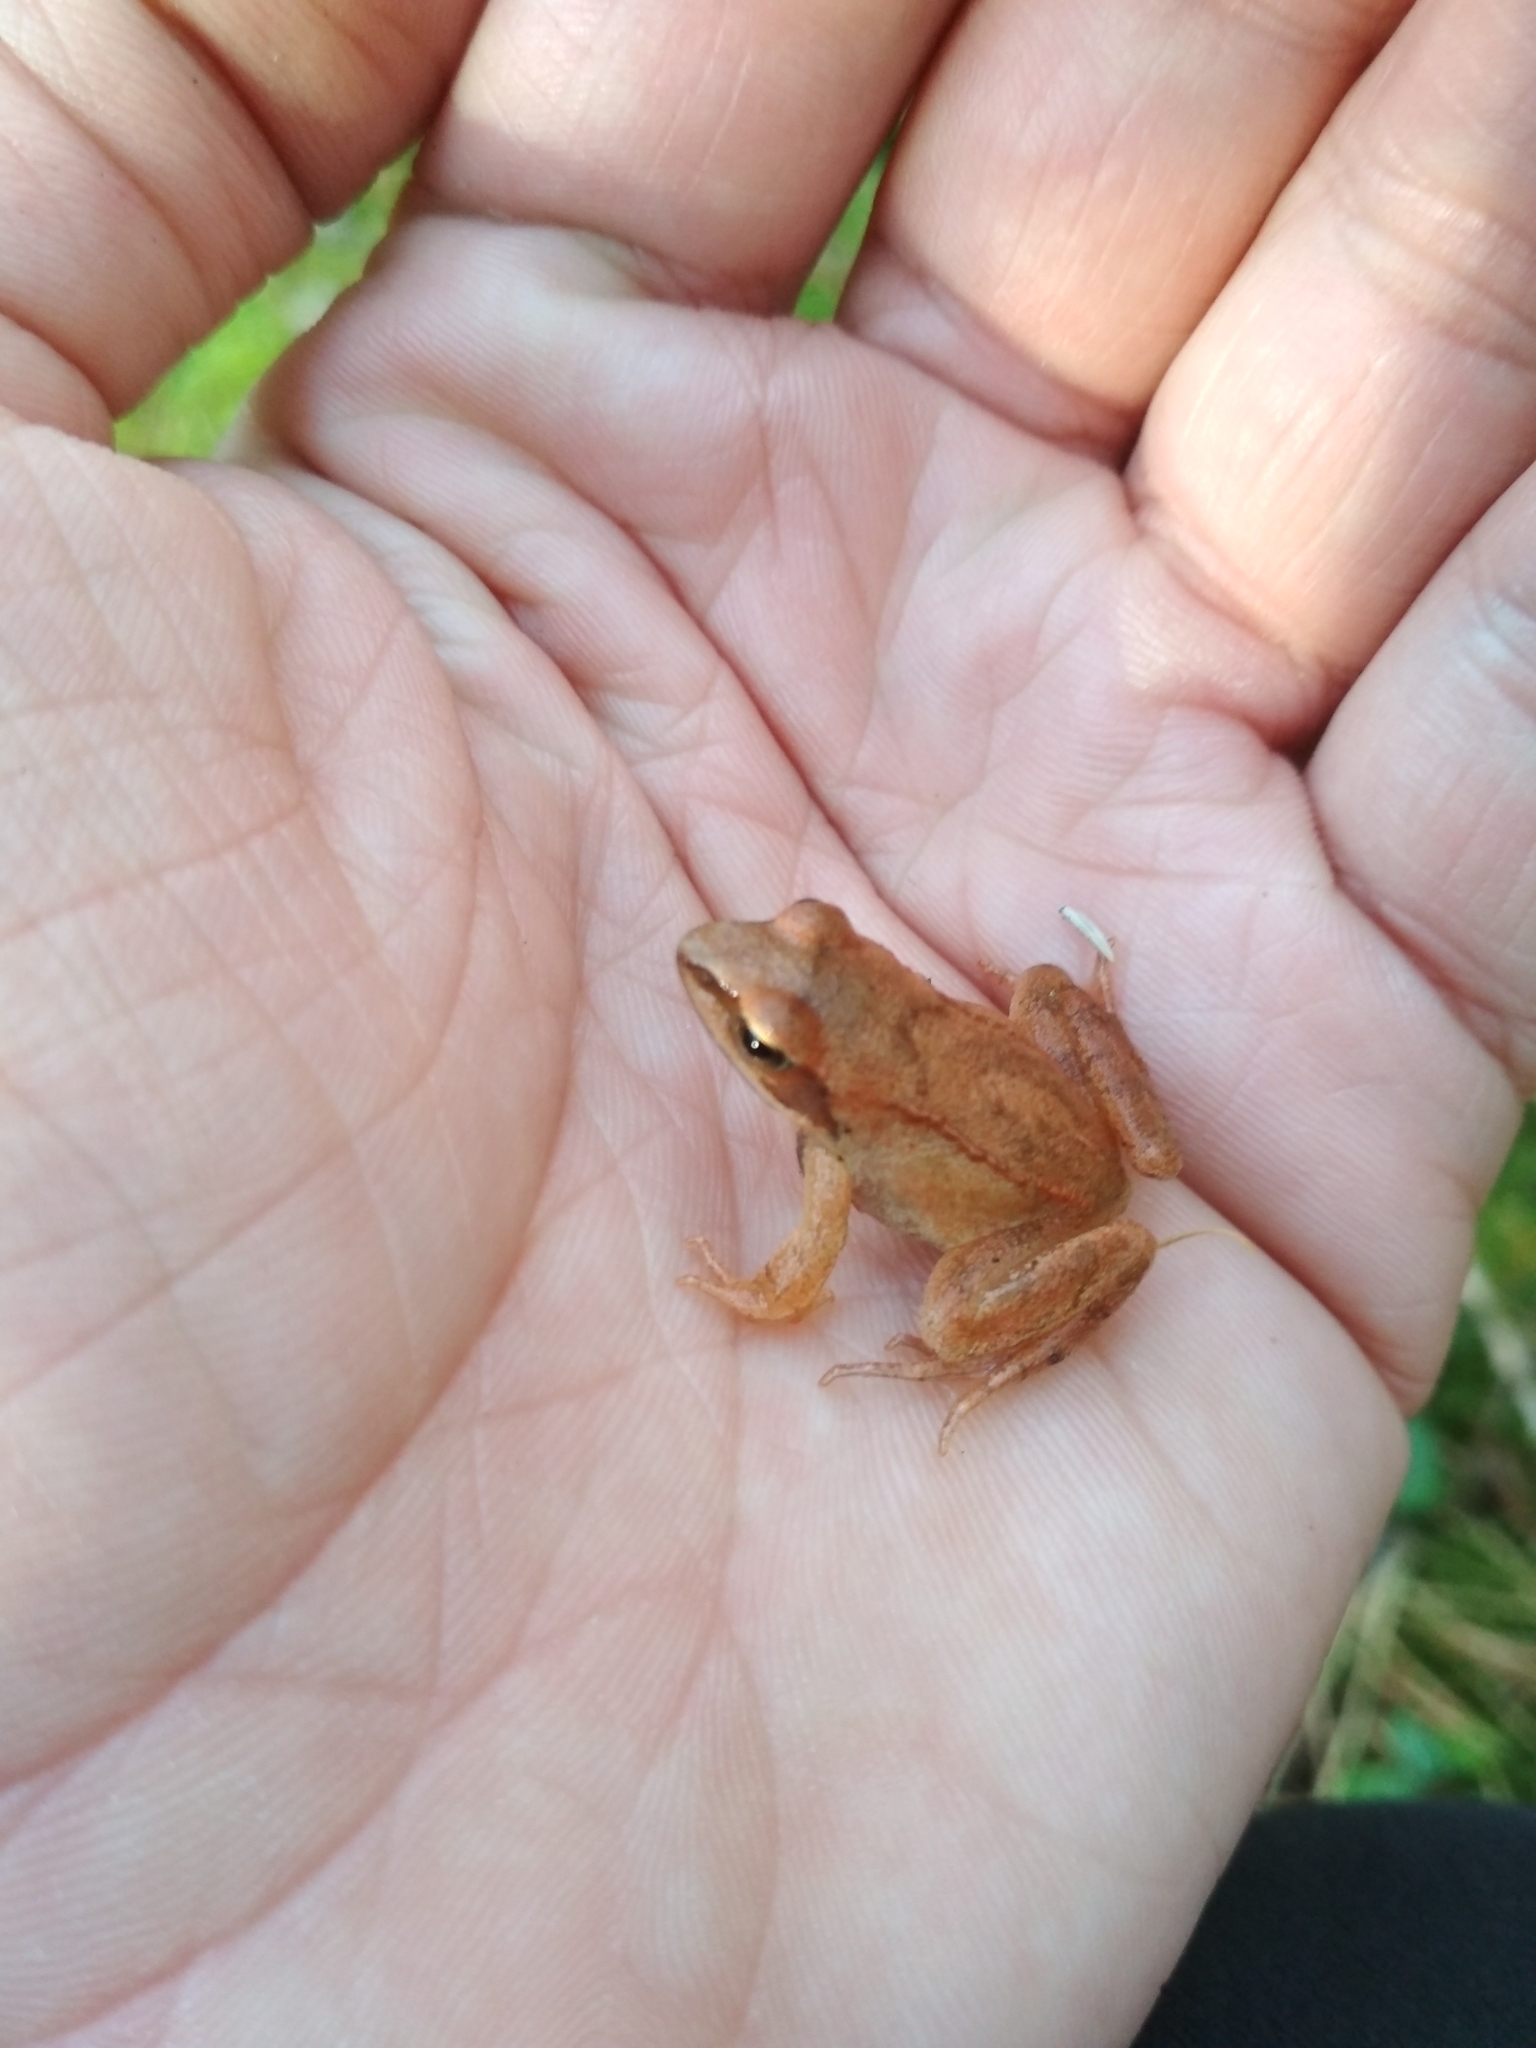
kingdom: Animalia
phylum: Chordata
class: Amphibia
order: Anura
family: Ranidae
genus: Rana
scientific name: Rana temporaria
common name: Common frog
